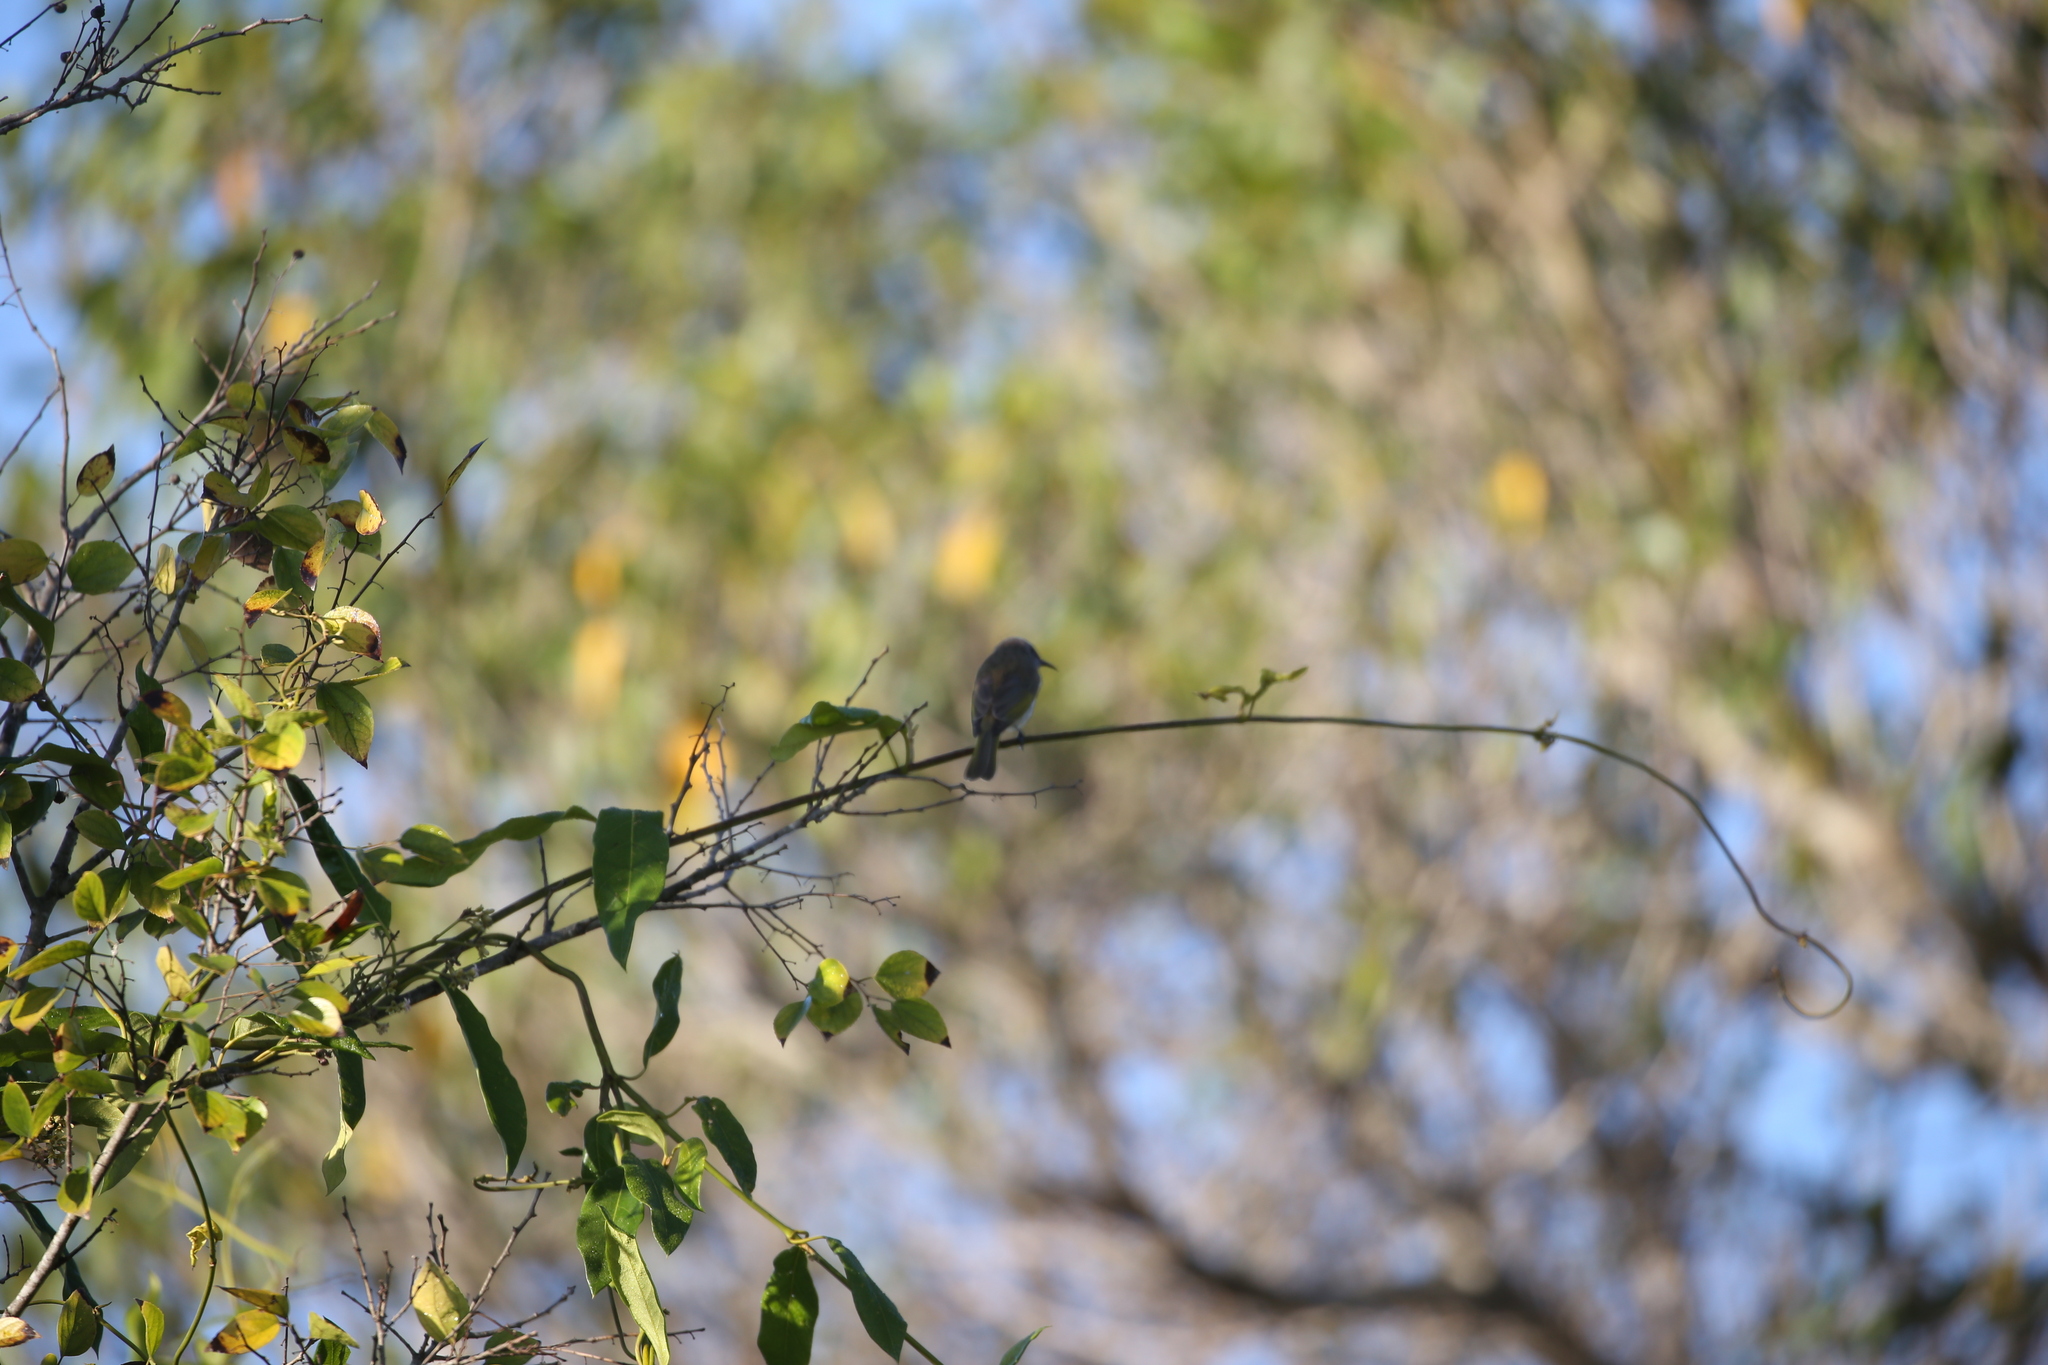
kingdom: Animalia
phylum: Chordata
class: Aves
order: Passeriformes
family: Meliphagidae
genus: Lichmera
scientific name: Lichmera indistincta
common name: Brown honeyeater
